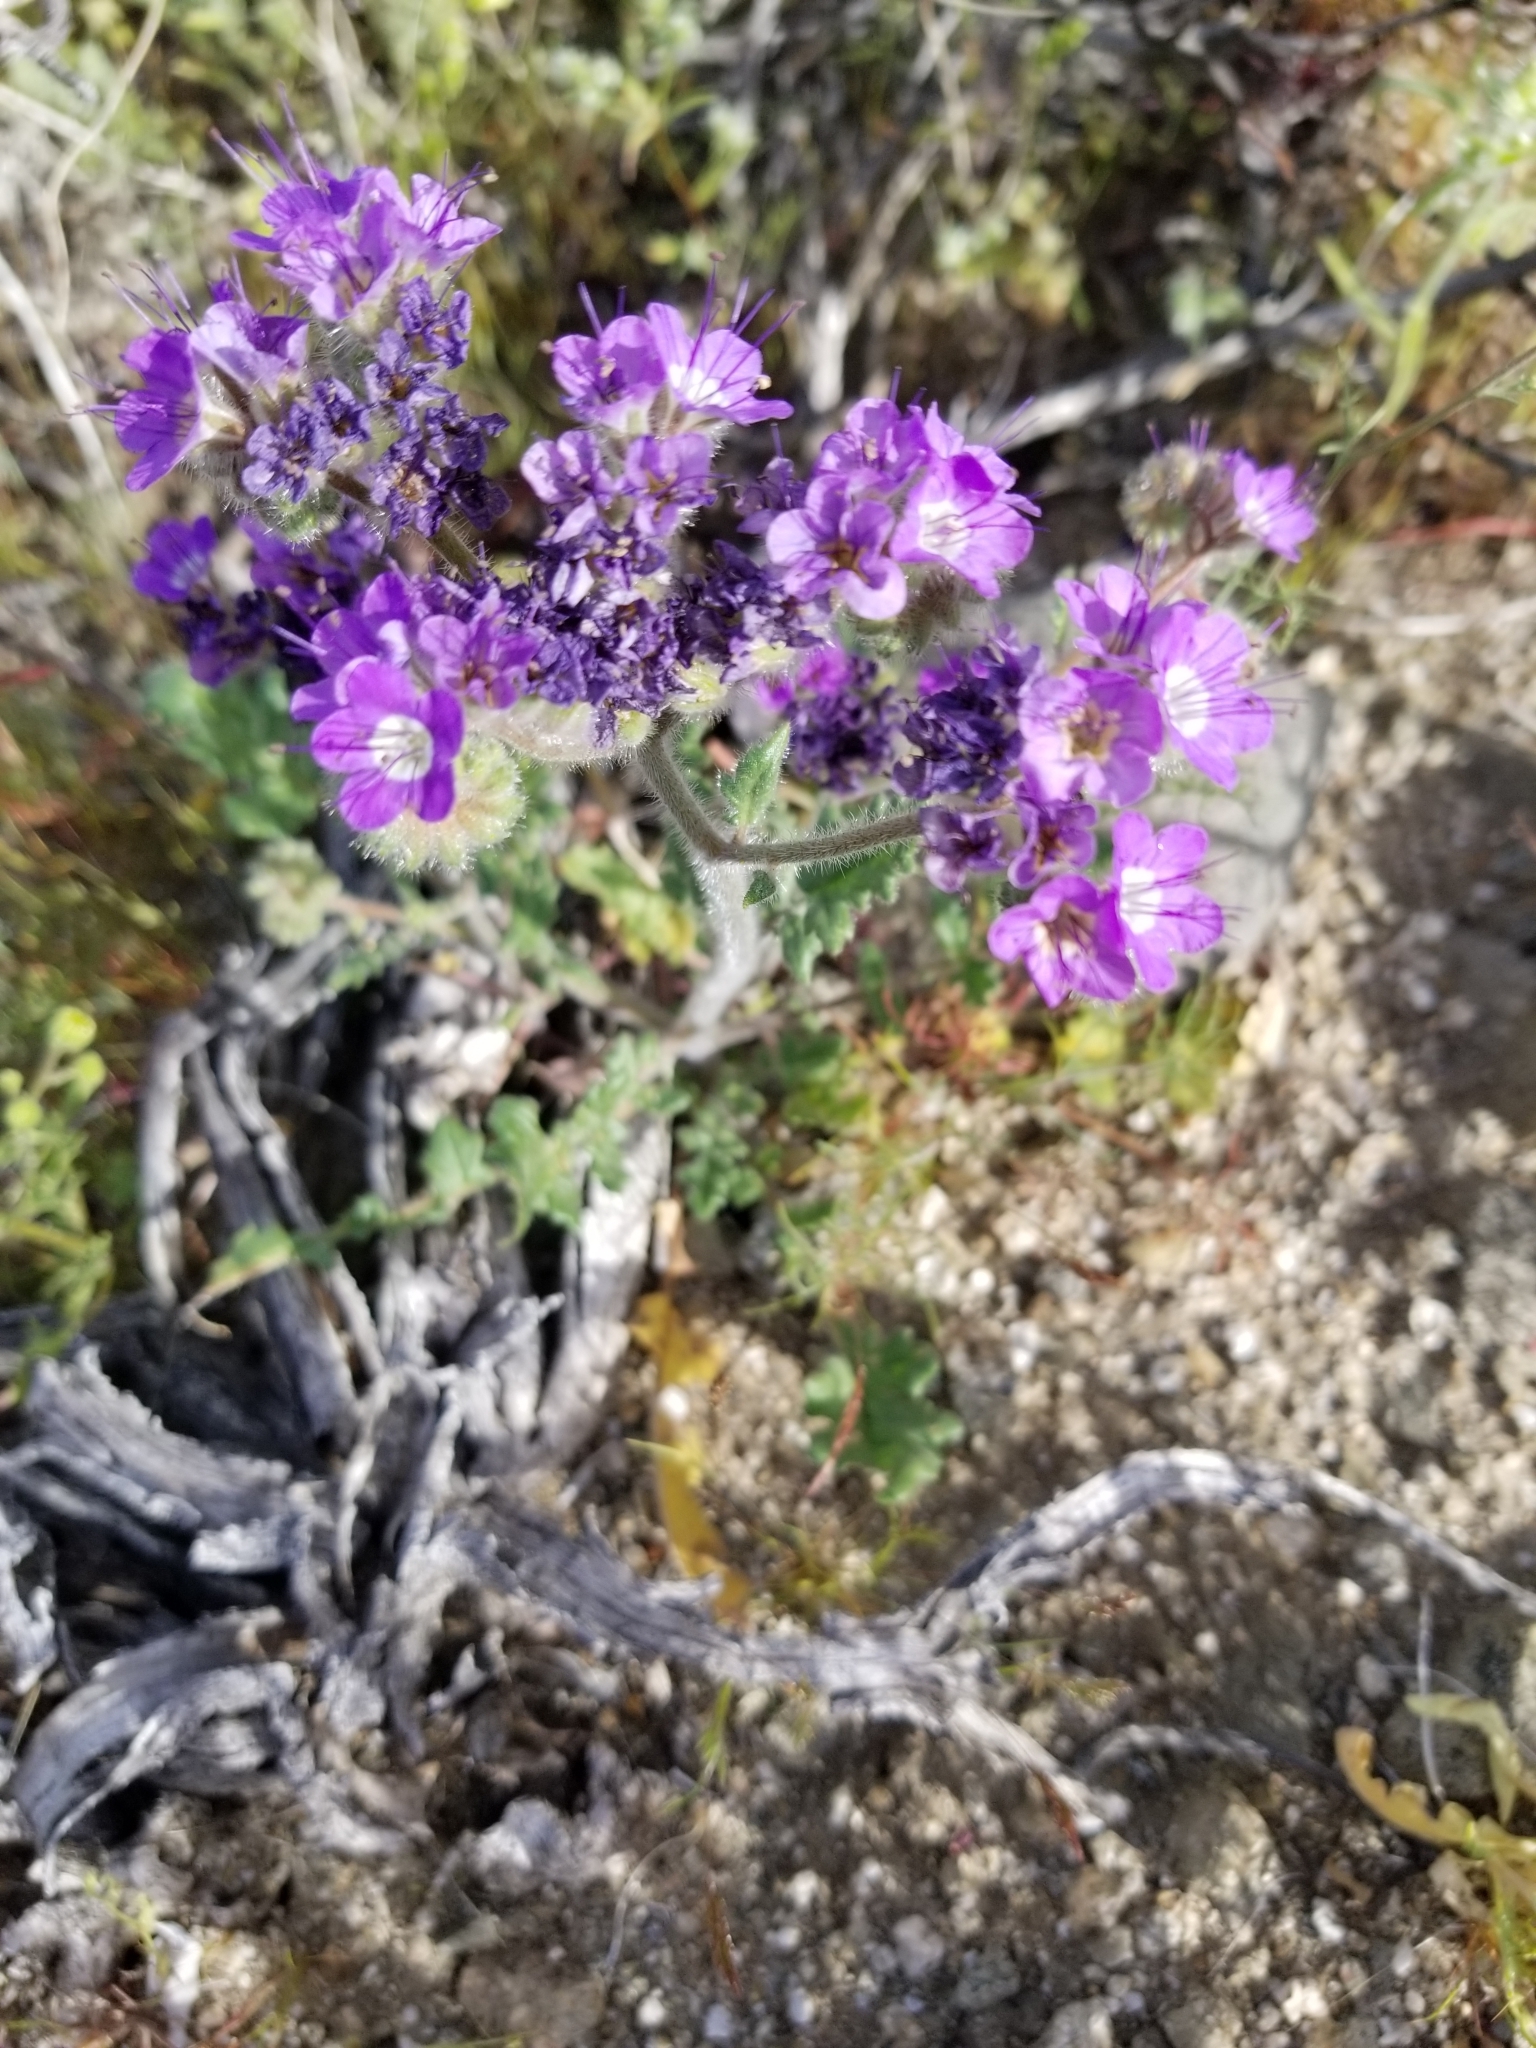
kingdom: Plantae
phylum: Tracheophyta
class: Magnoliopsida
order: Boraginales
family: Hydrophyllaceae
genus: Phacelia
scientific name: Phacelia crenulata
